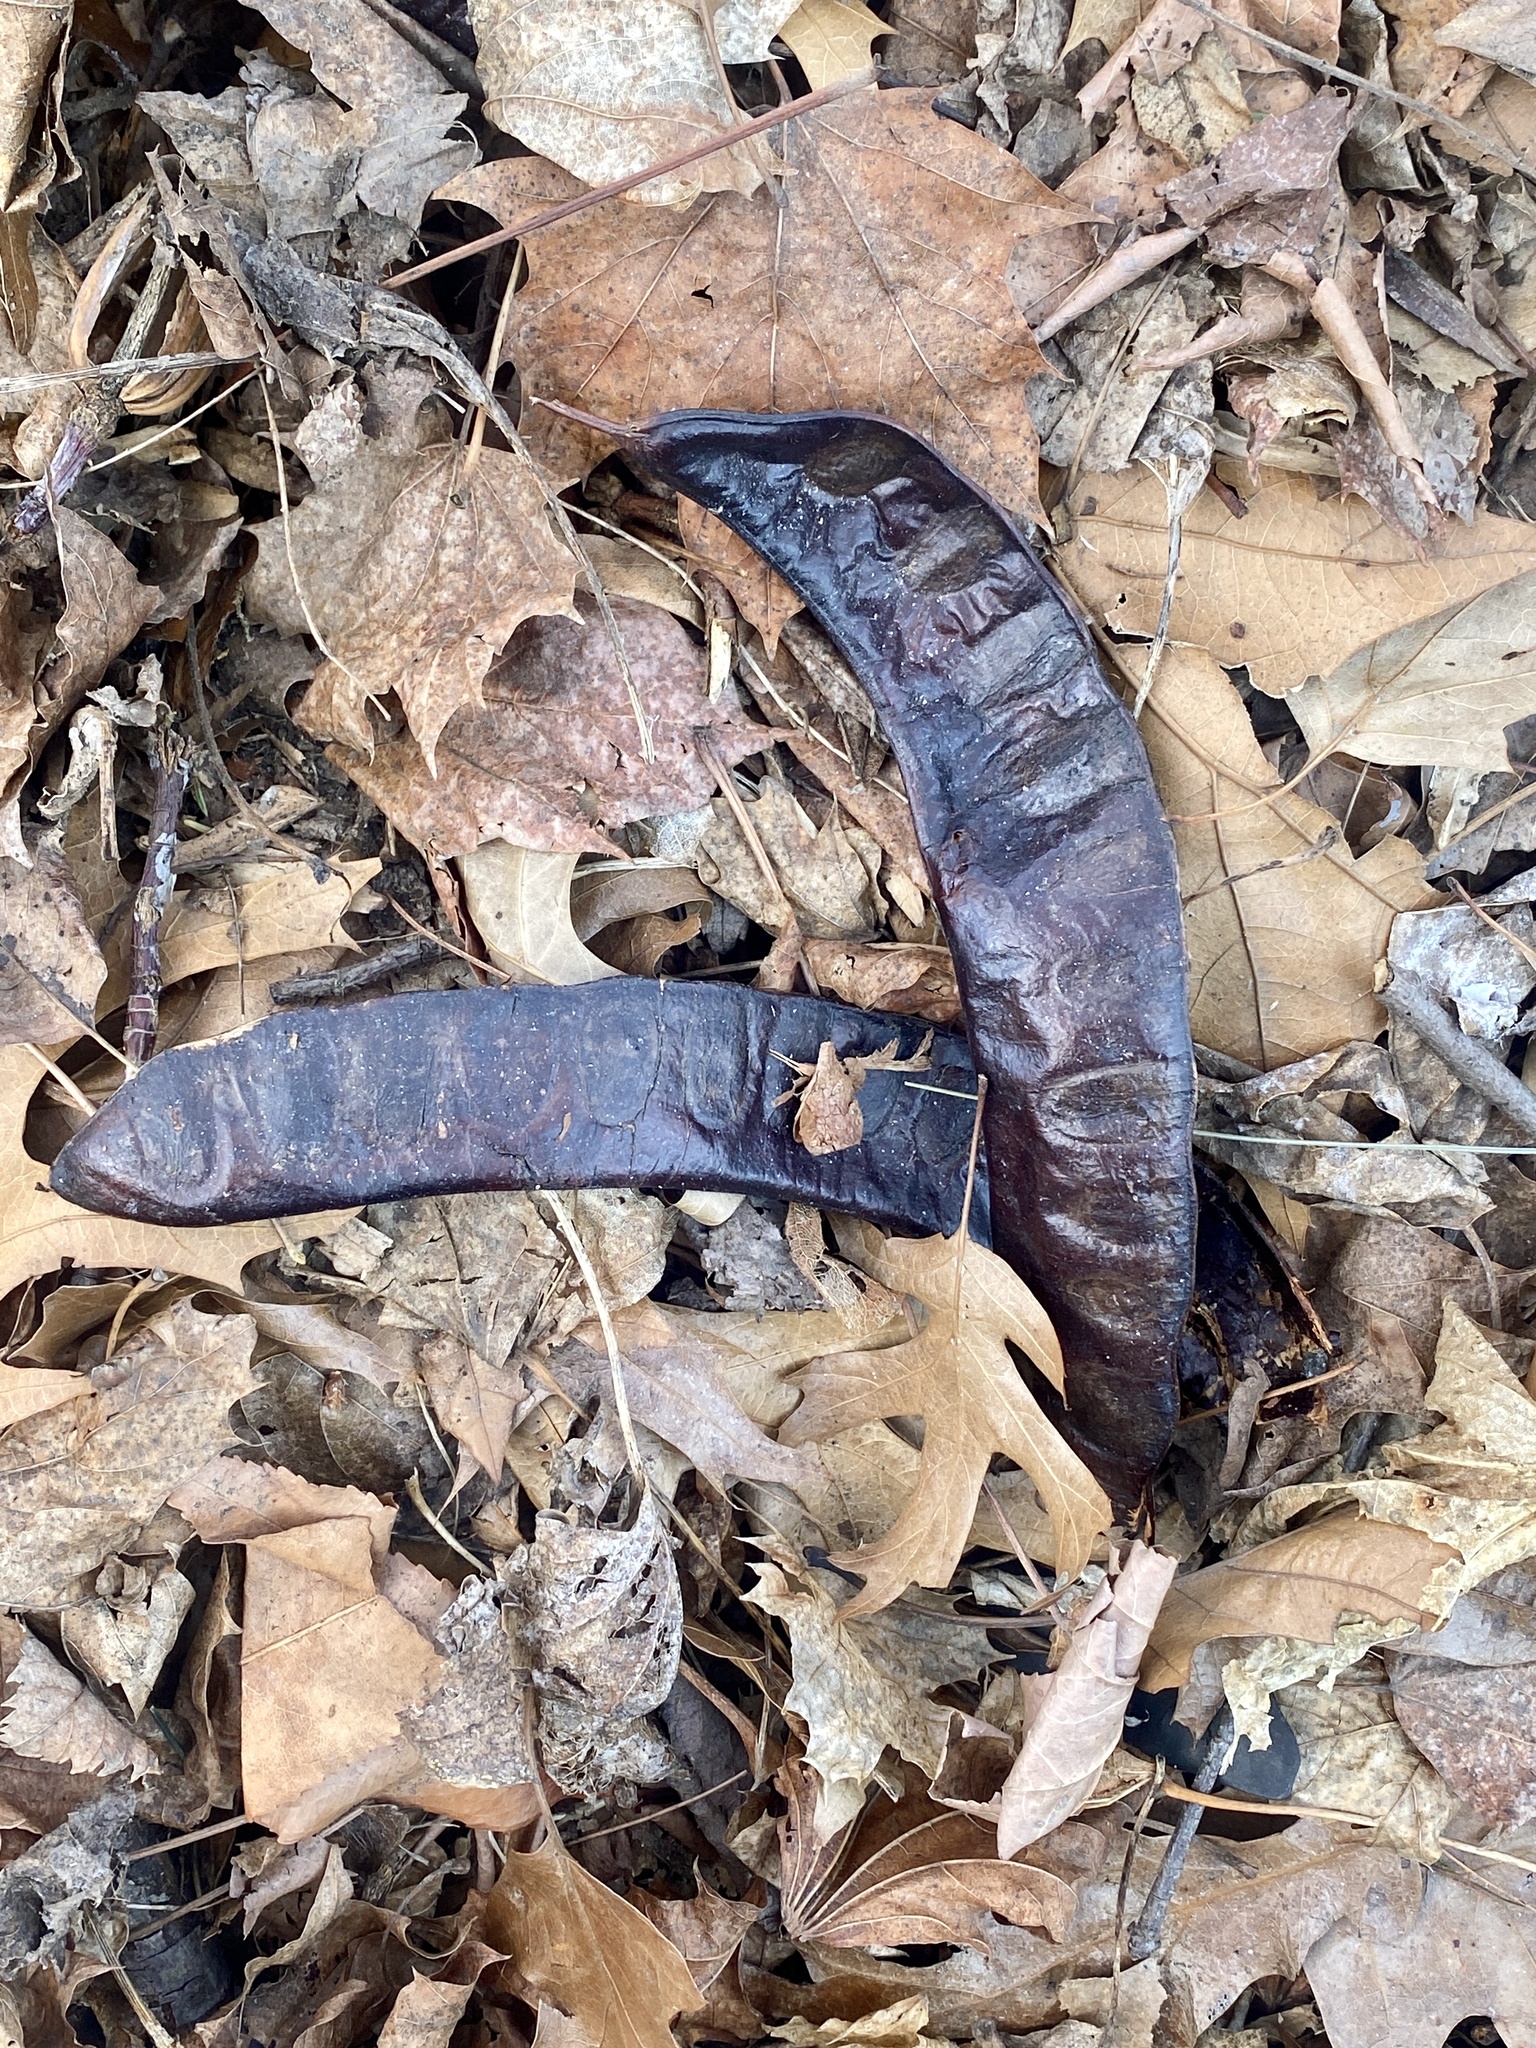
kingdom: Plantae
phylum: Tracheophyta
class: Magnoliopsida
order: Fabales
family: Fabaceae
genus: Gleditsia
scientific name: Gleditsia triacanthos
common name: Common honeylocust
